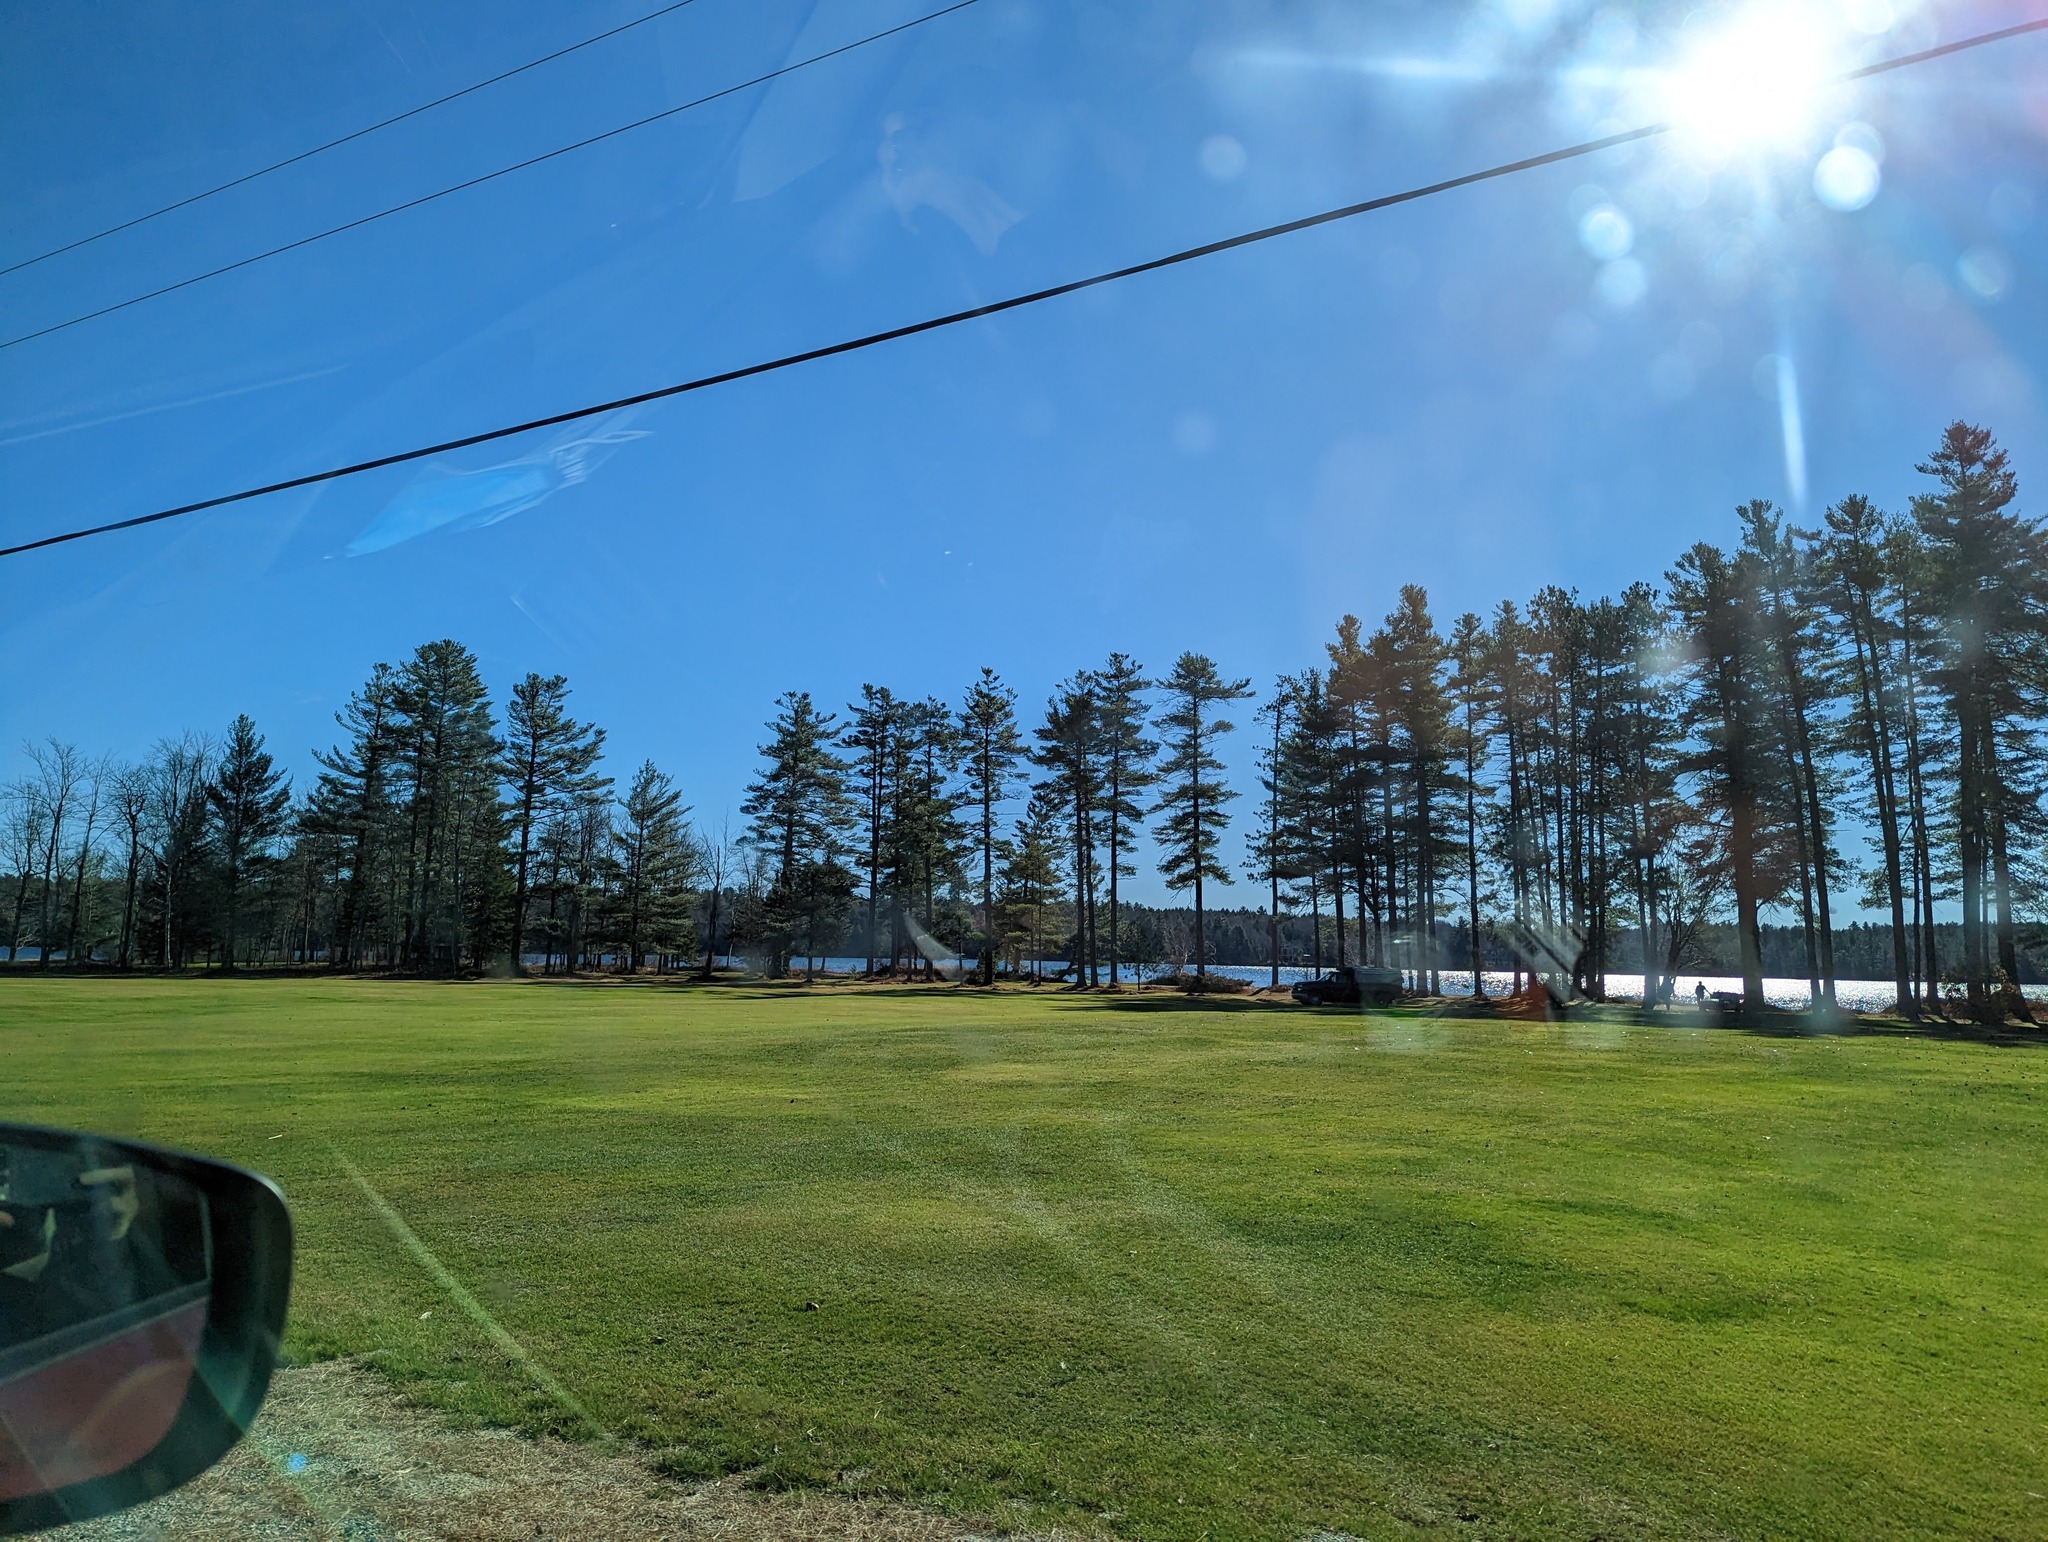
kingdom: Plantae
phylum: Tracheophyta
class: Pinopsida
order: Pinales
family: Pinaceae
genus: Pinus
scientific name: Pinus strobus
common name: Weymouth pine
